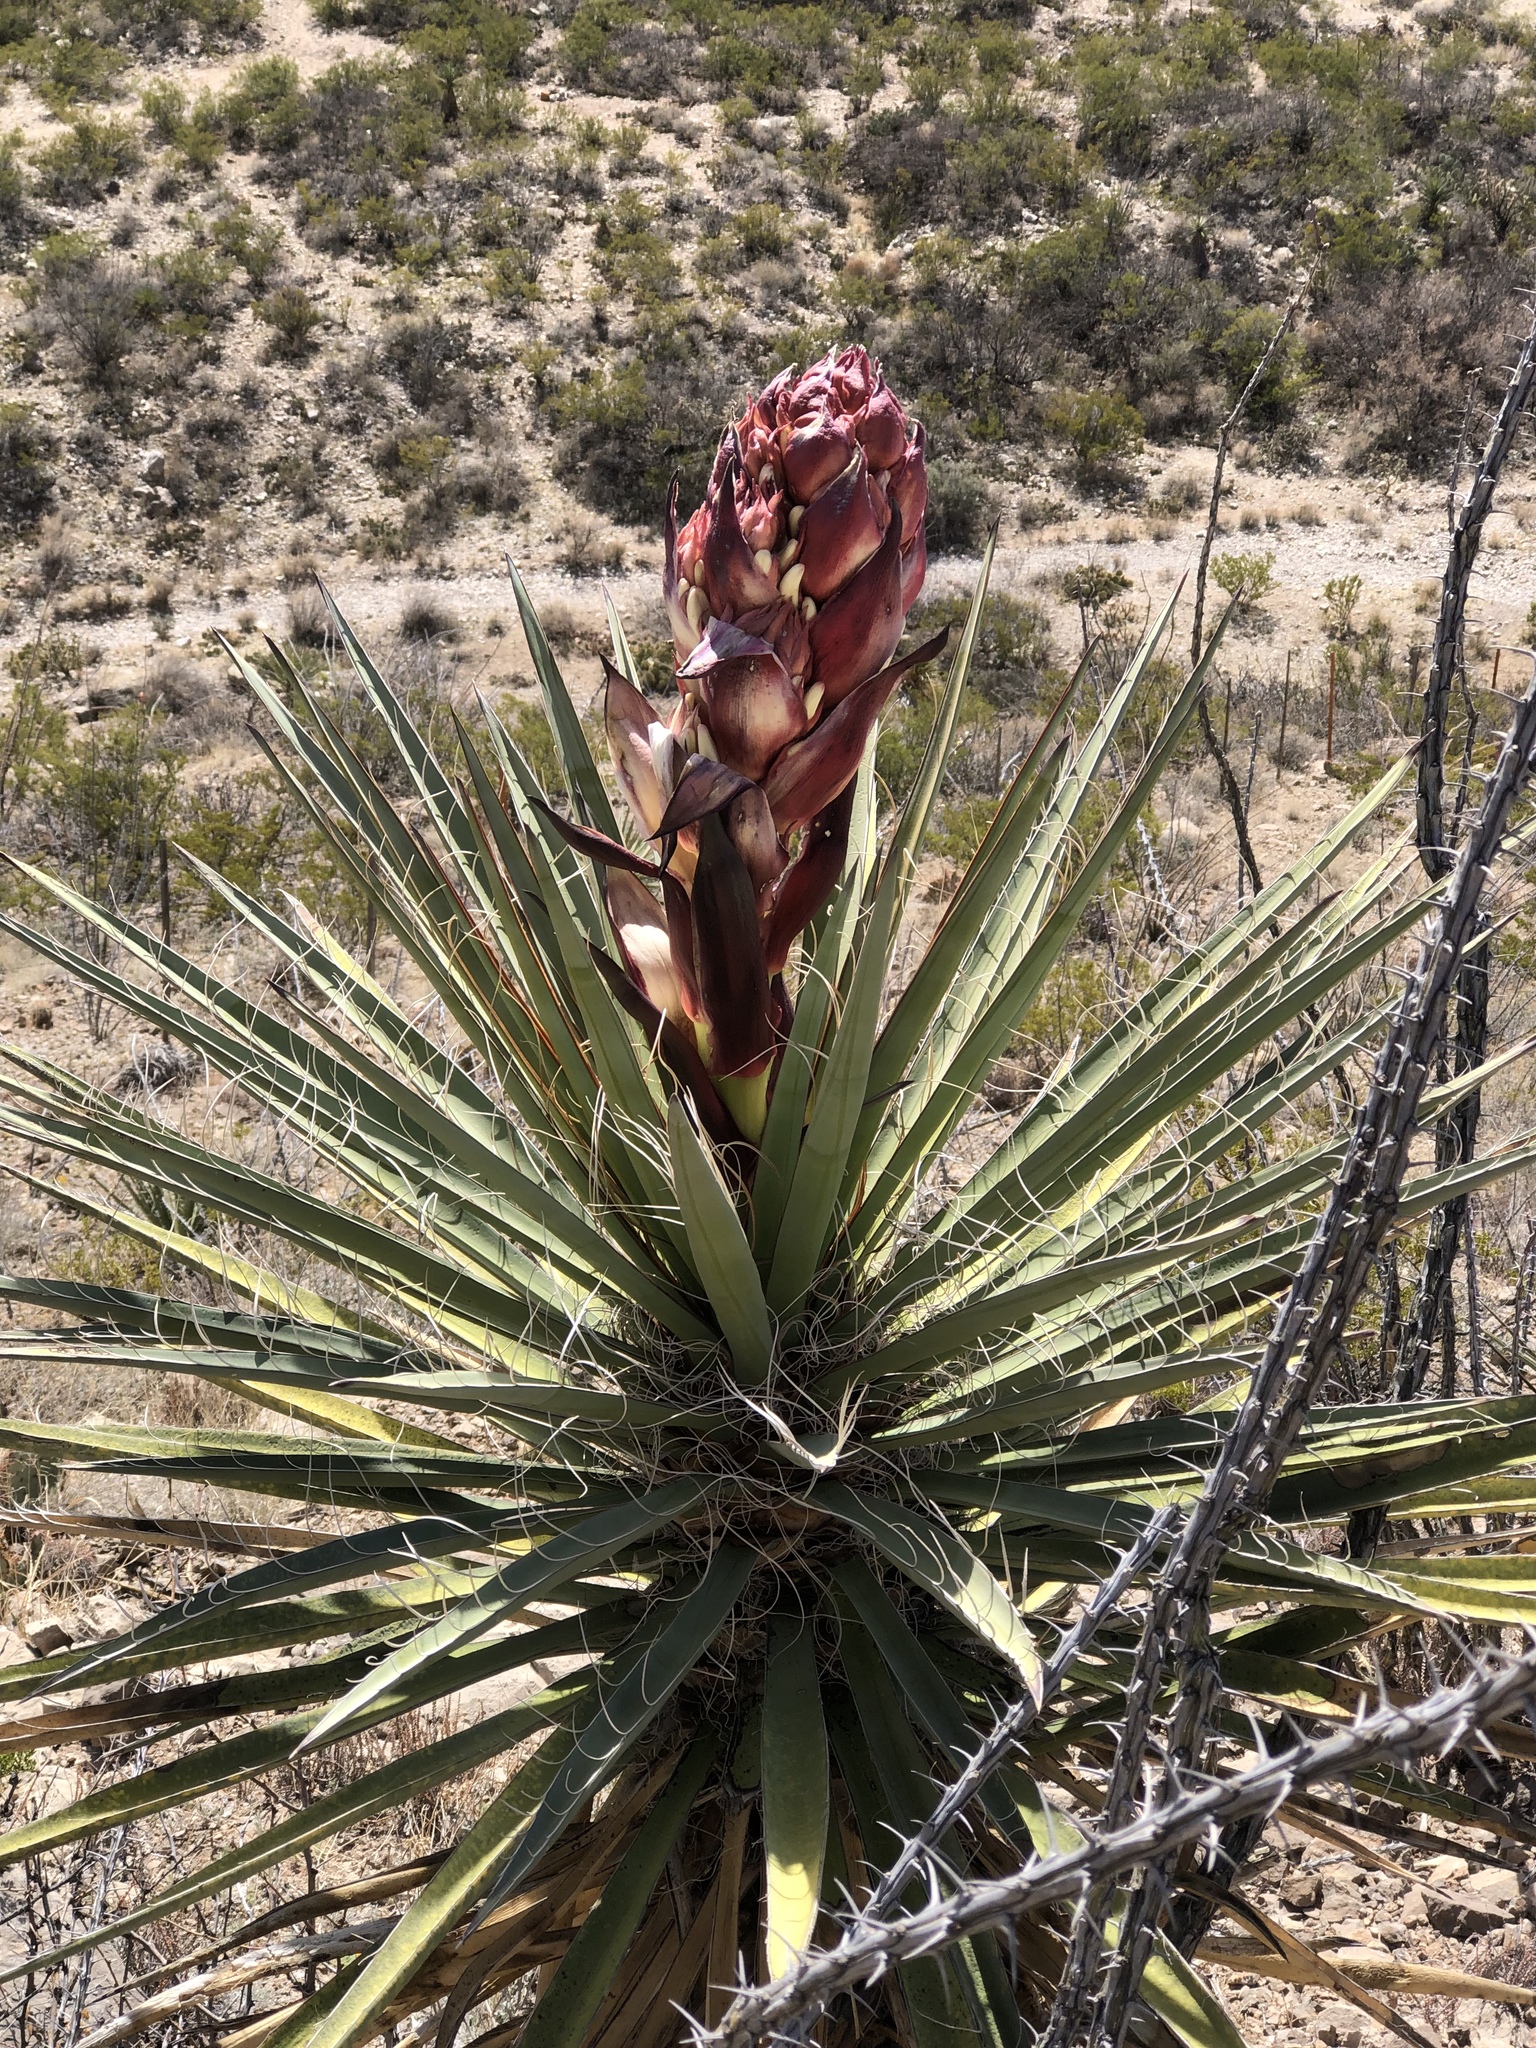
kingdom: Plantae
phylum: Tracheophyta
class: Liliopsida
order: Asparagales
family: Asparagaceae
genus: Yucca
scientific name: Yucca treculiana
